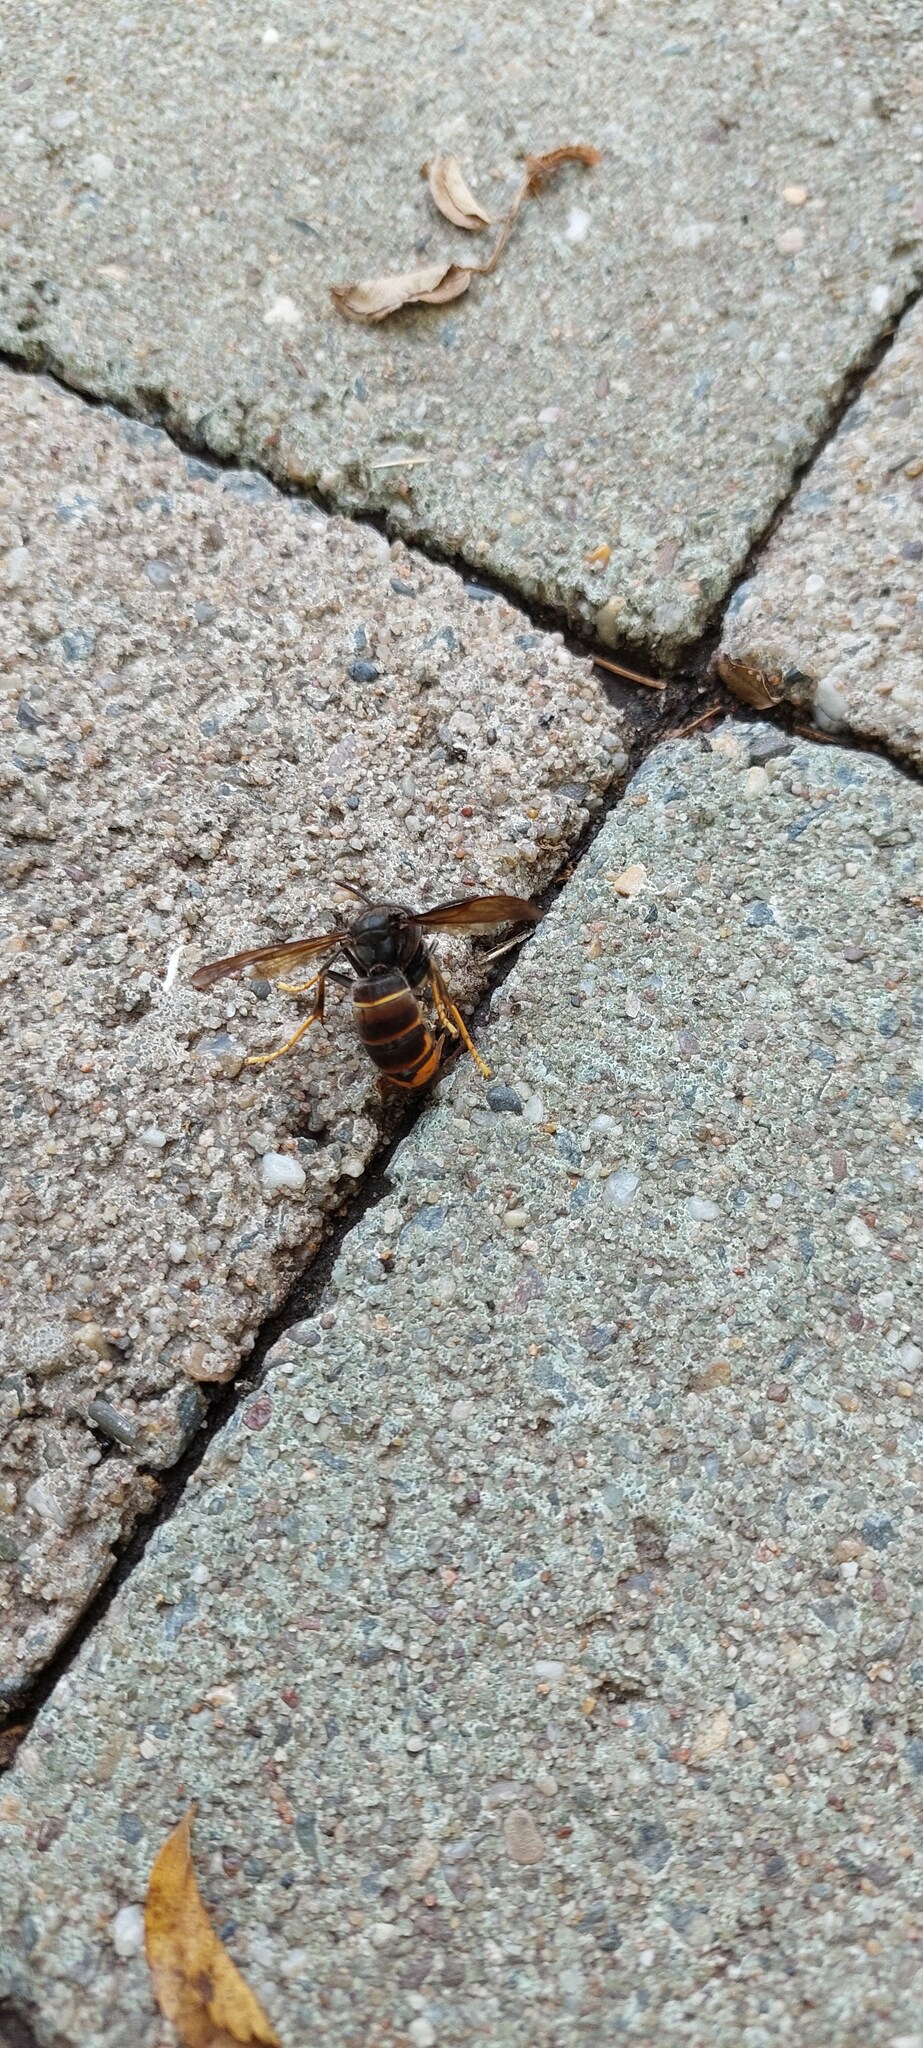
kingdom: Animalia
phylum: Arthropoda
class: Insecta
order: Hymenoptera
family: Vespidae
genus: Vespa
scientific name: Vespa velutina
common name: Asian hornet
